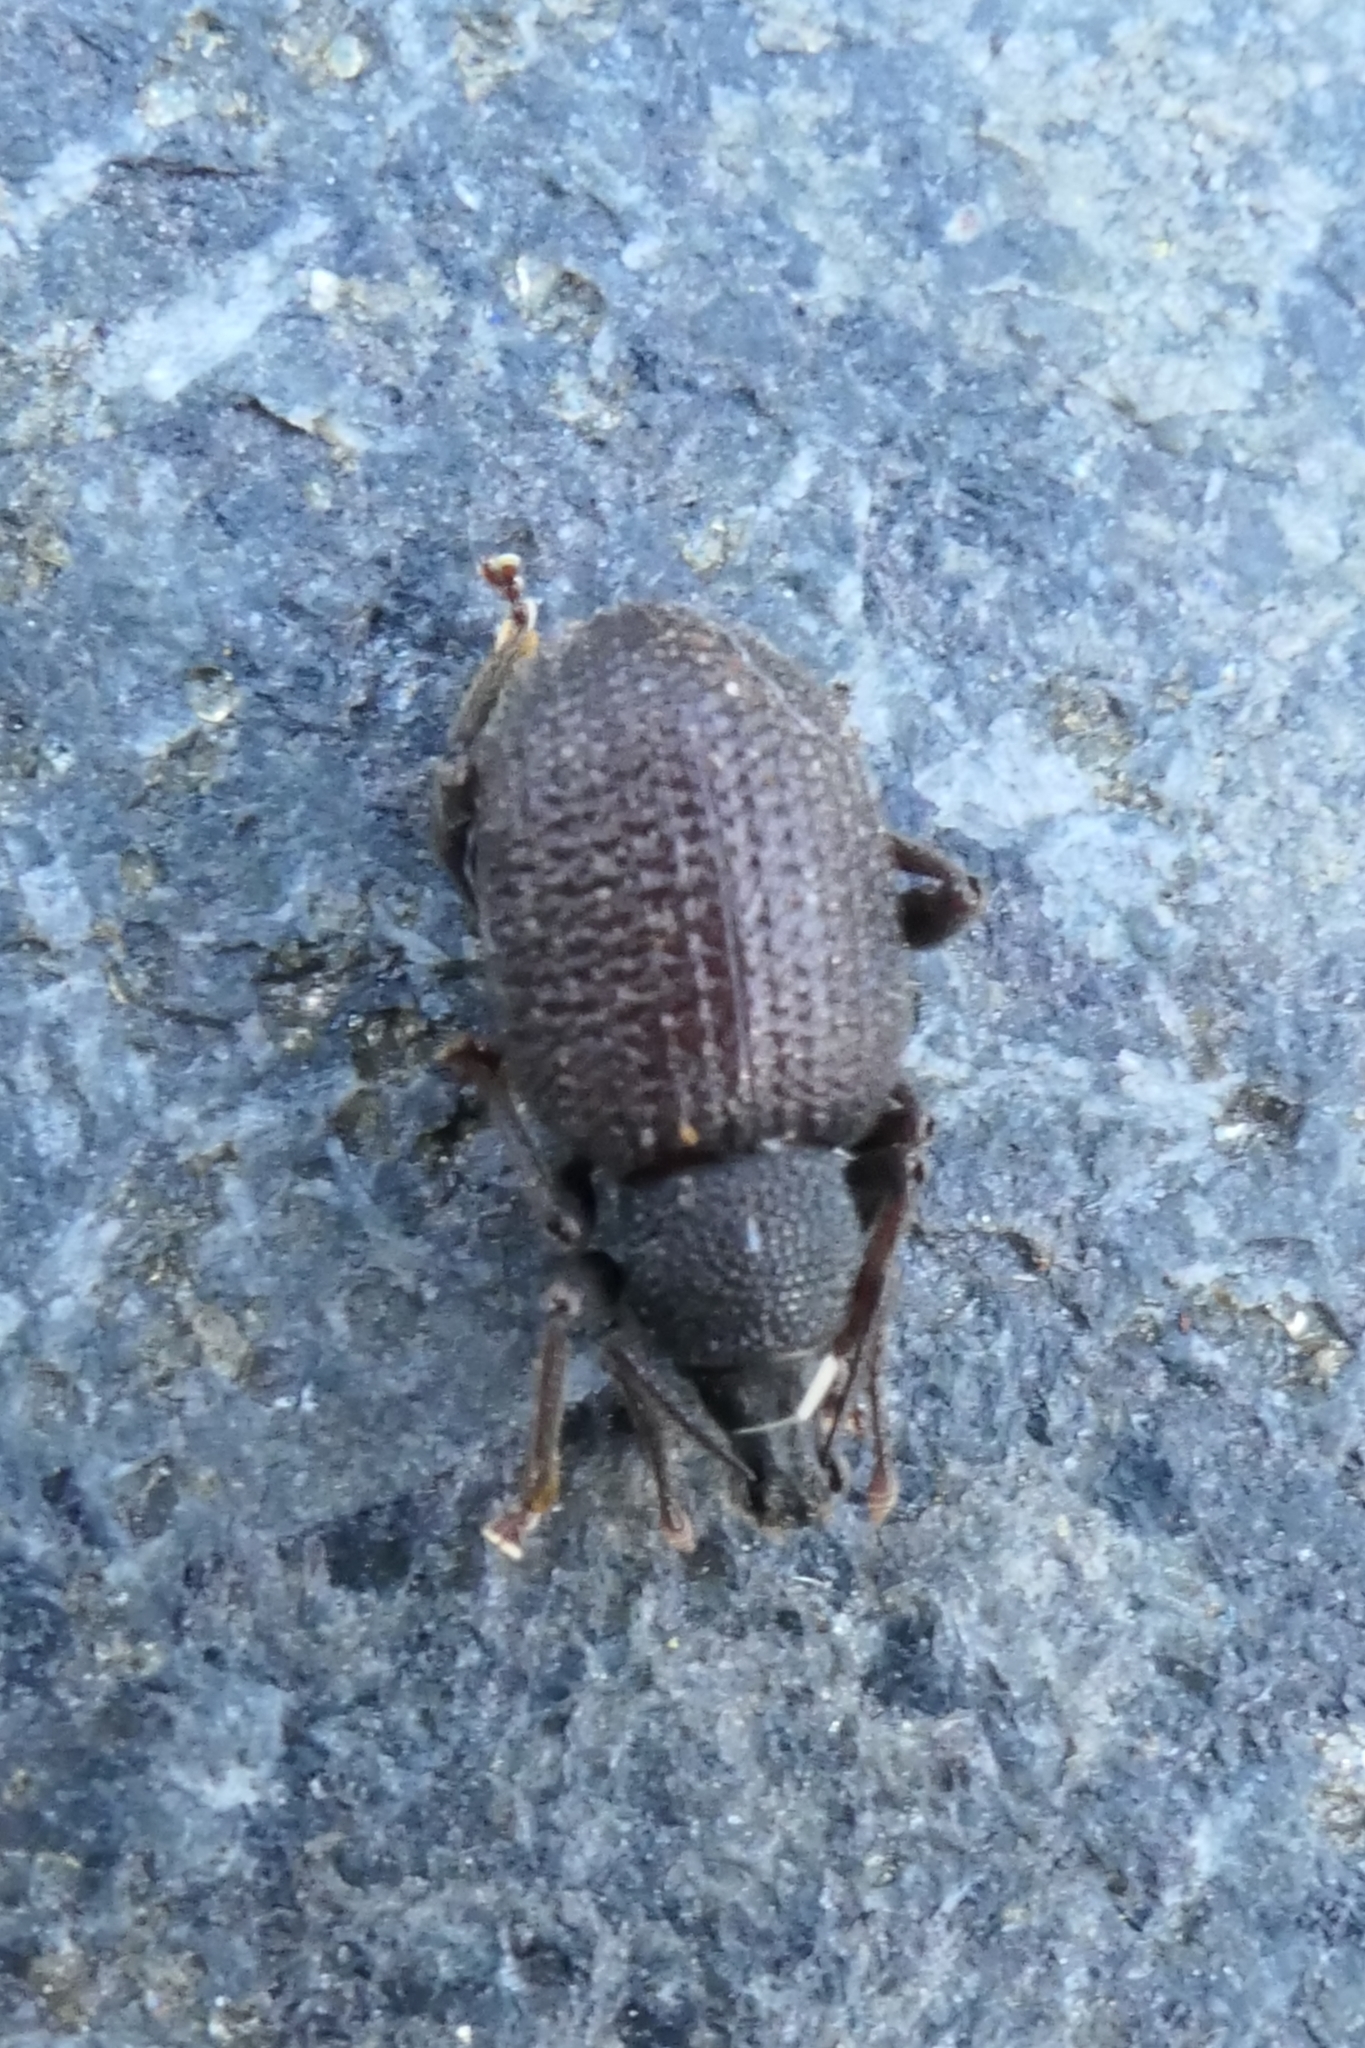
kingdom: Animalia
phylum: Arthropoda
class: Insecta
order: Coleoptera
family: Curculionidae
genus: Otiorhynchus
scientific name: Otiorhynchus rugosostriatus
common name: Weevil
